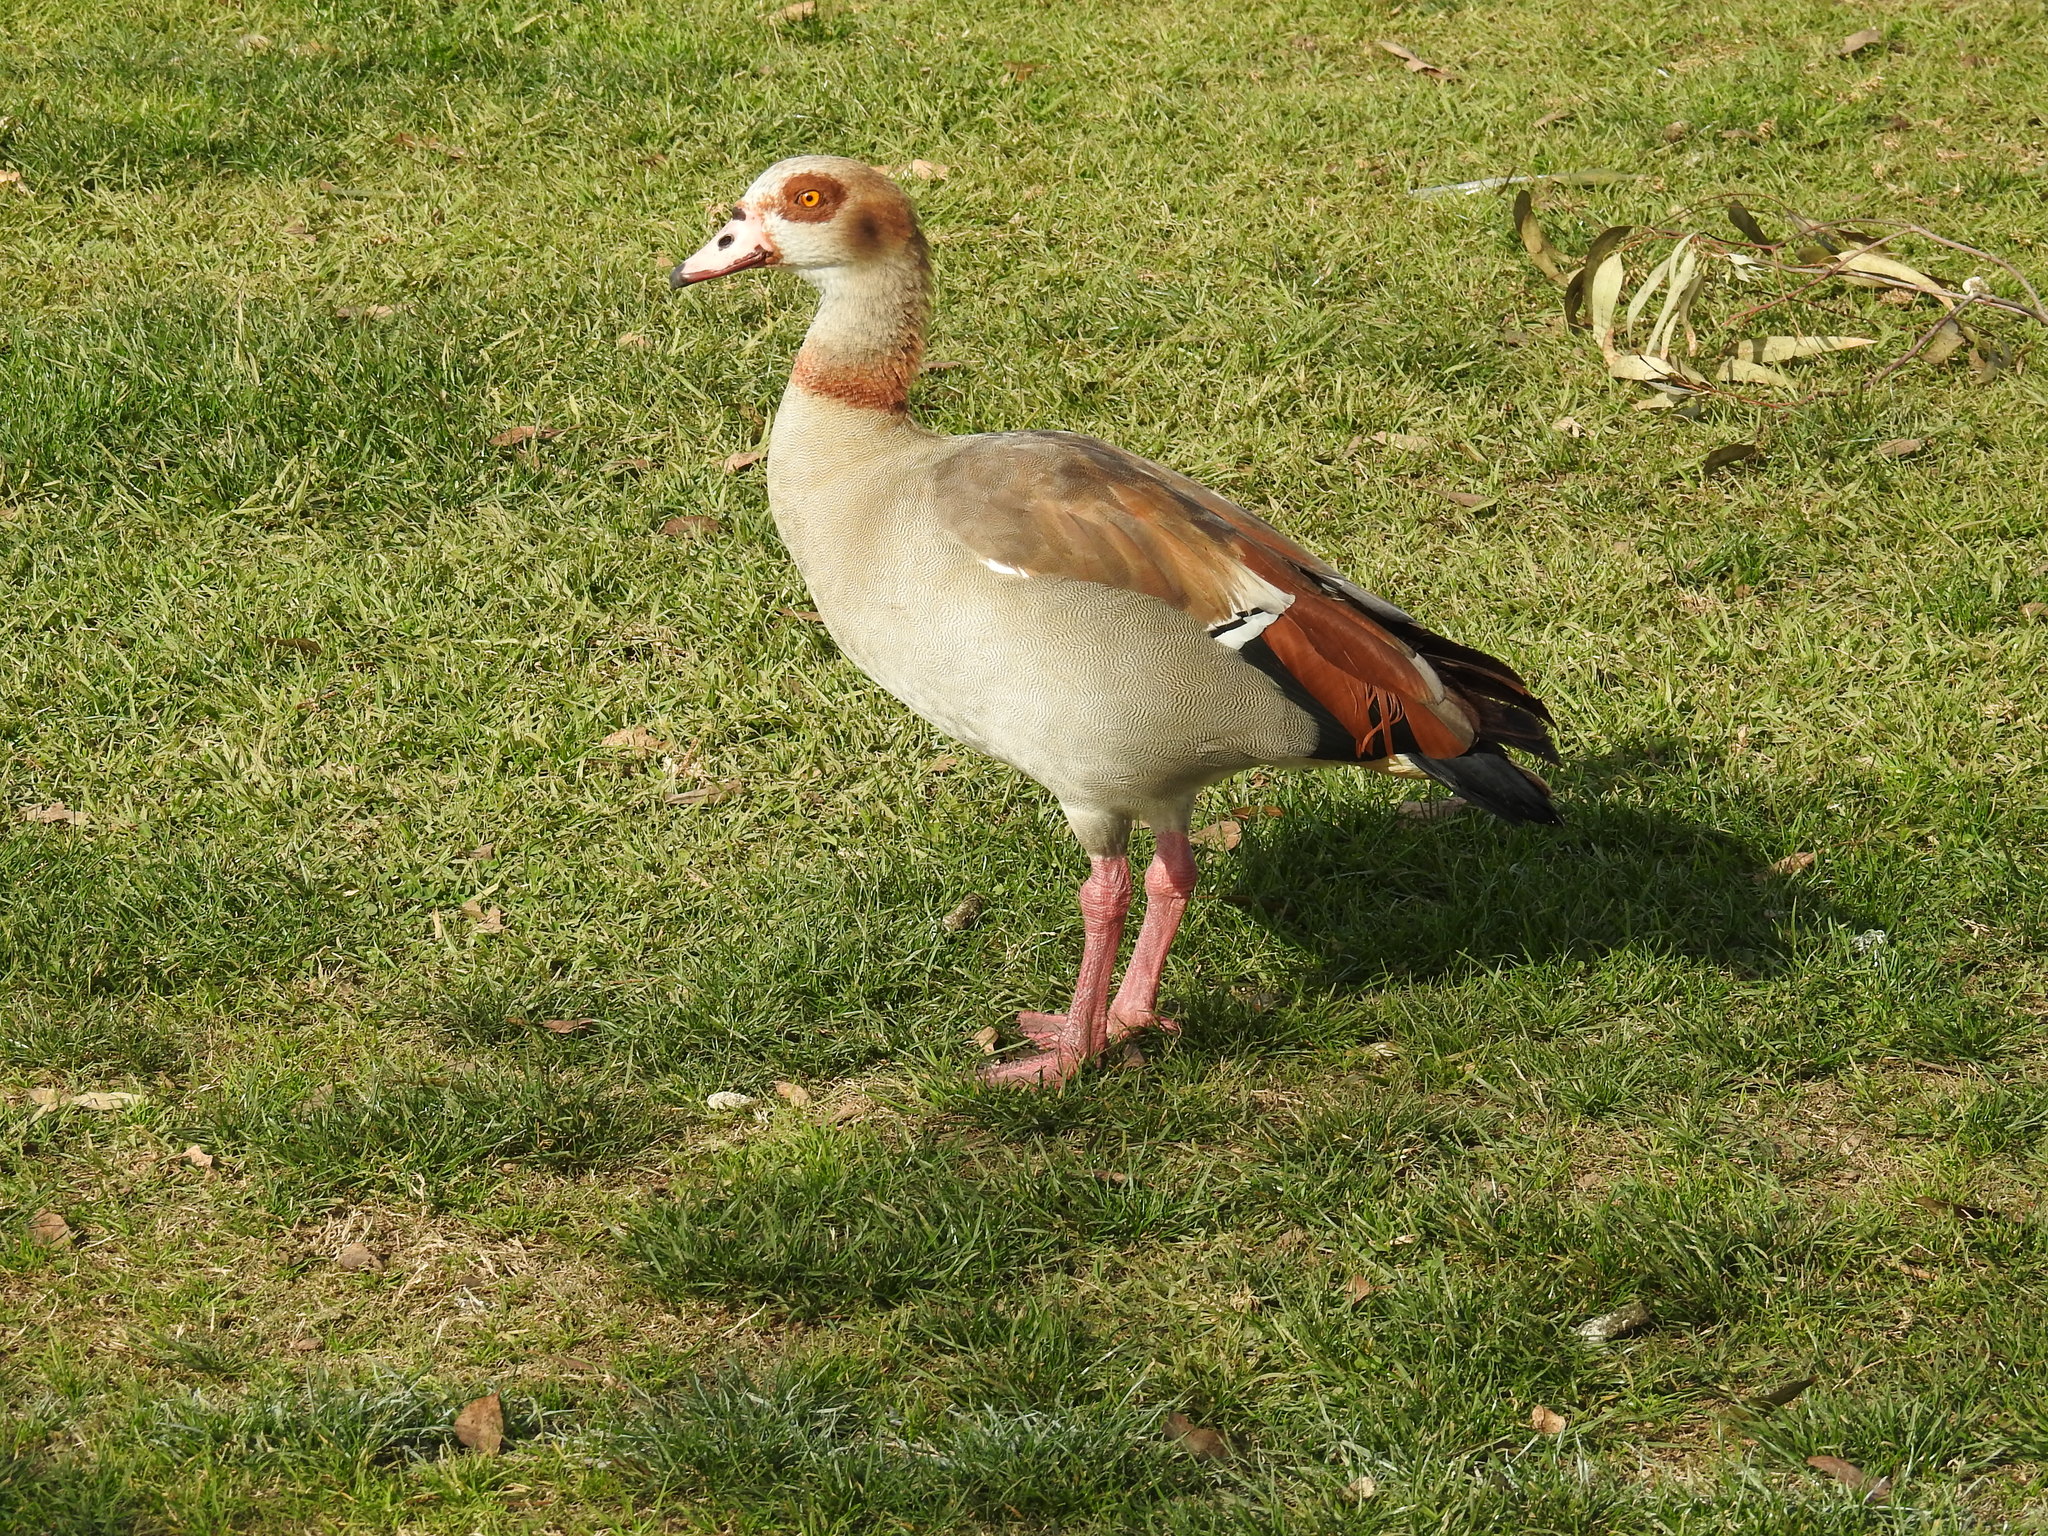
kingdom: Animalia
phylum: Chordata
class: Aves
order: Anseriformes
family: Anatidae
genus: Alopochen
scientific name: Alopochen aegyptiaca
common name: Egyptian goose
